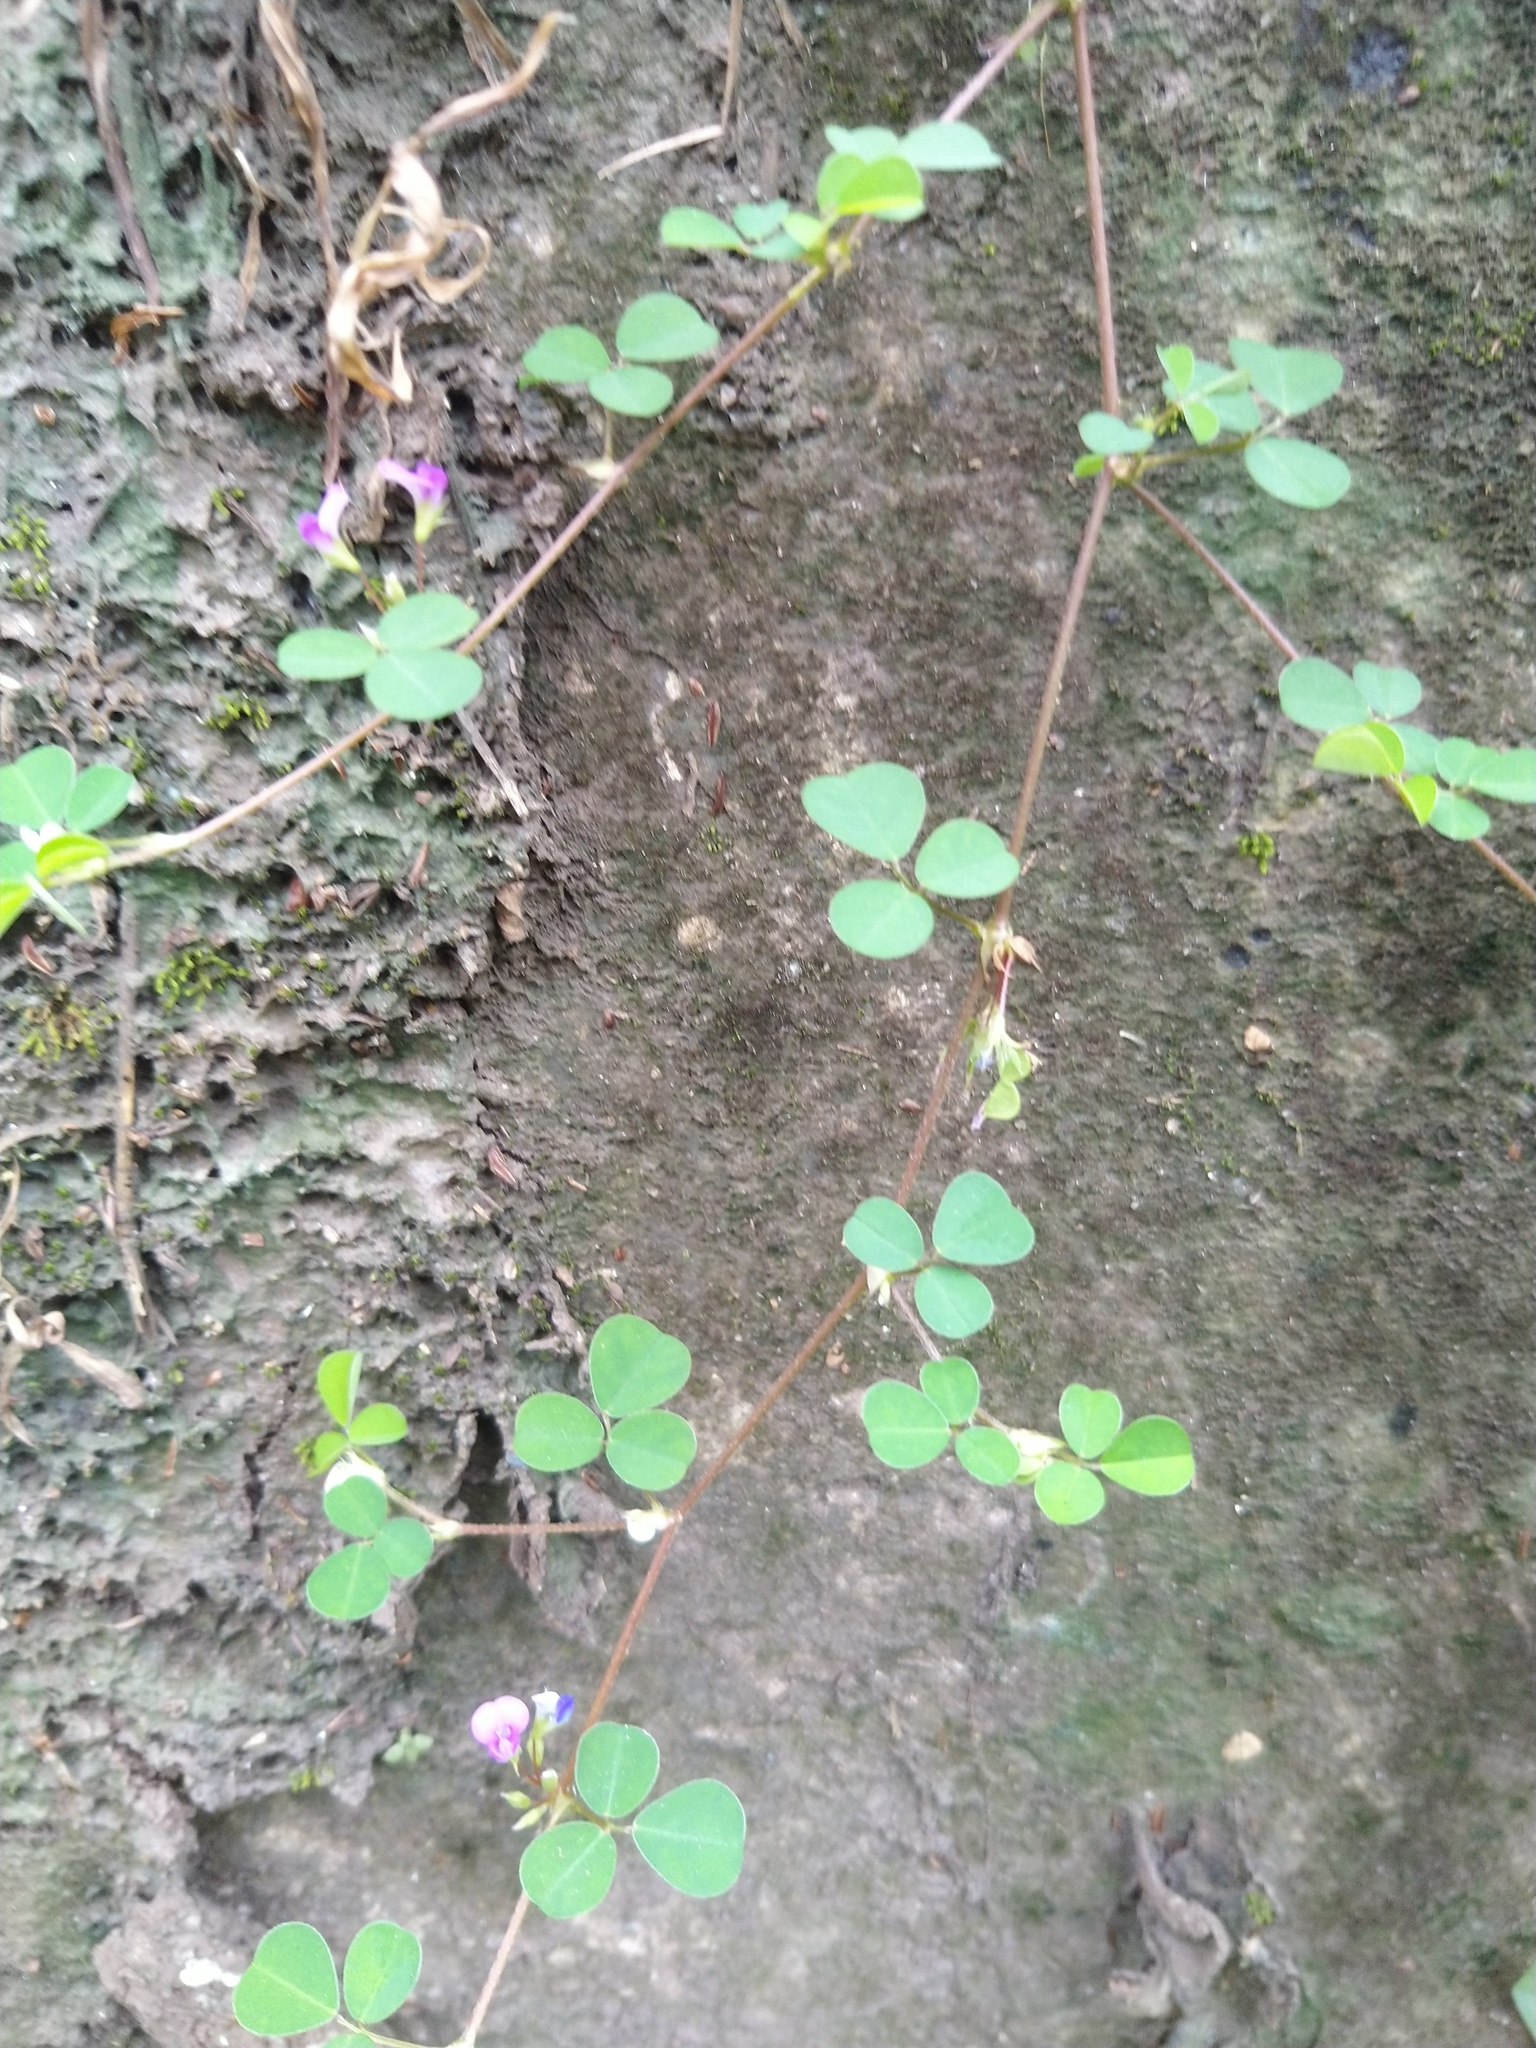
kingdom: Plantae
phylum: Tracheophyta
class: Magnoliopsida
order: Fabales
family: Fabaceae
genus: Grona
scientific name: Grona triflora
